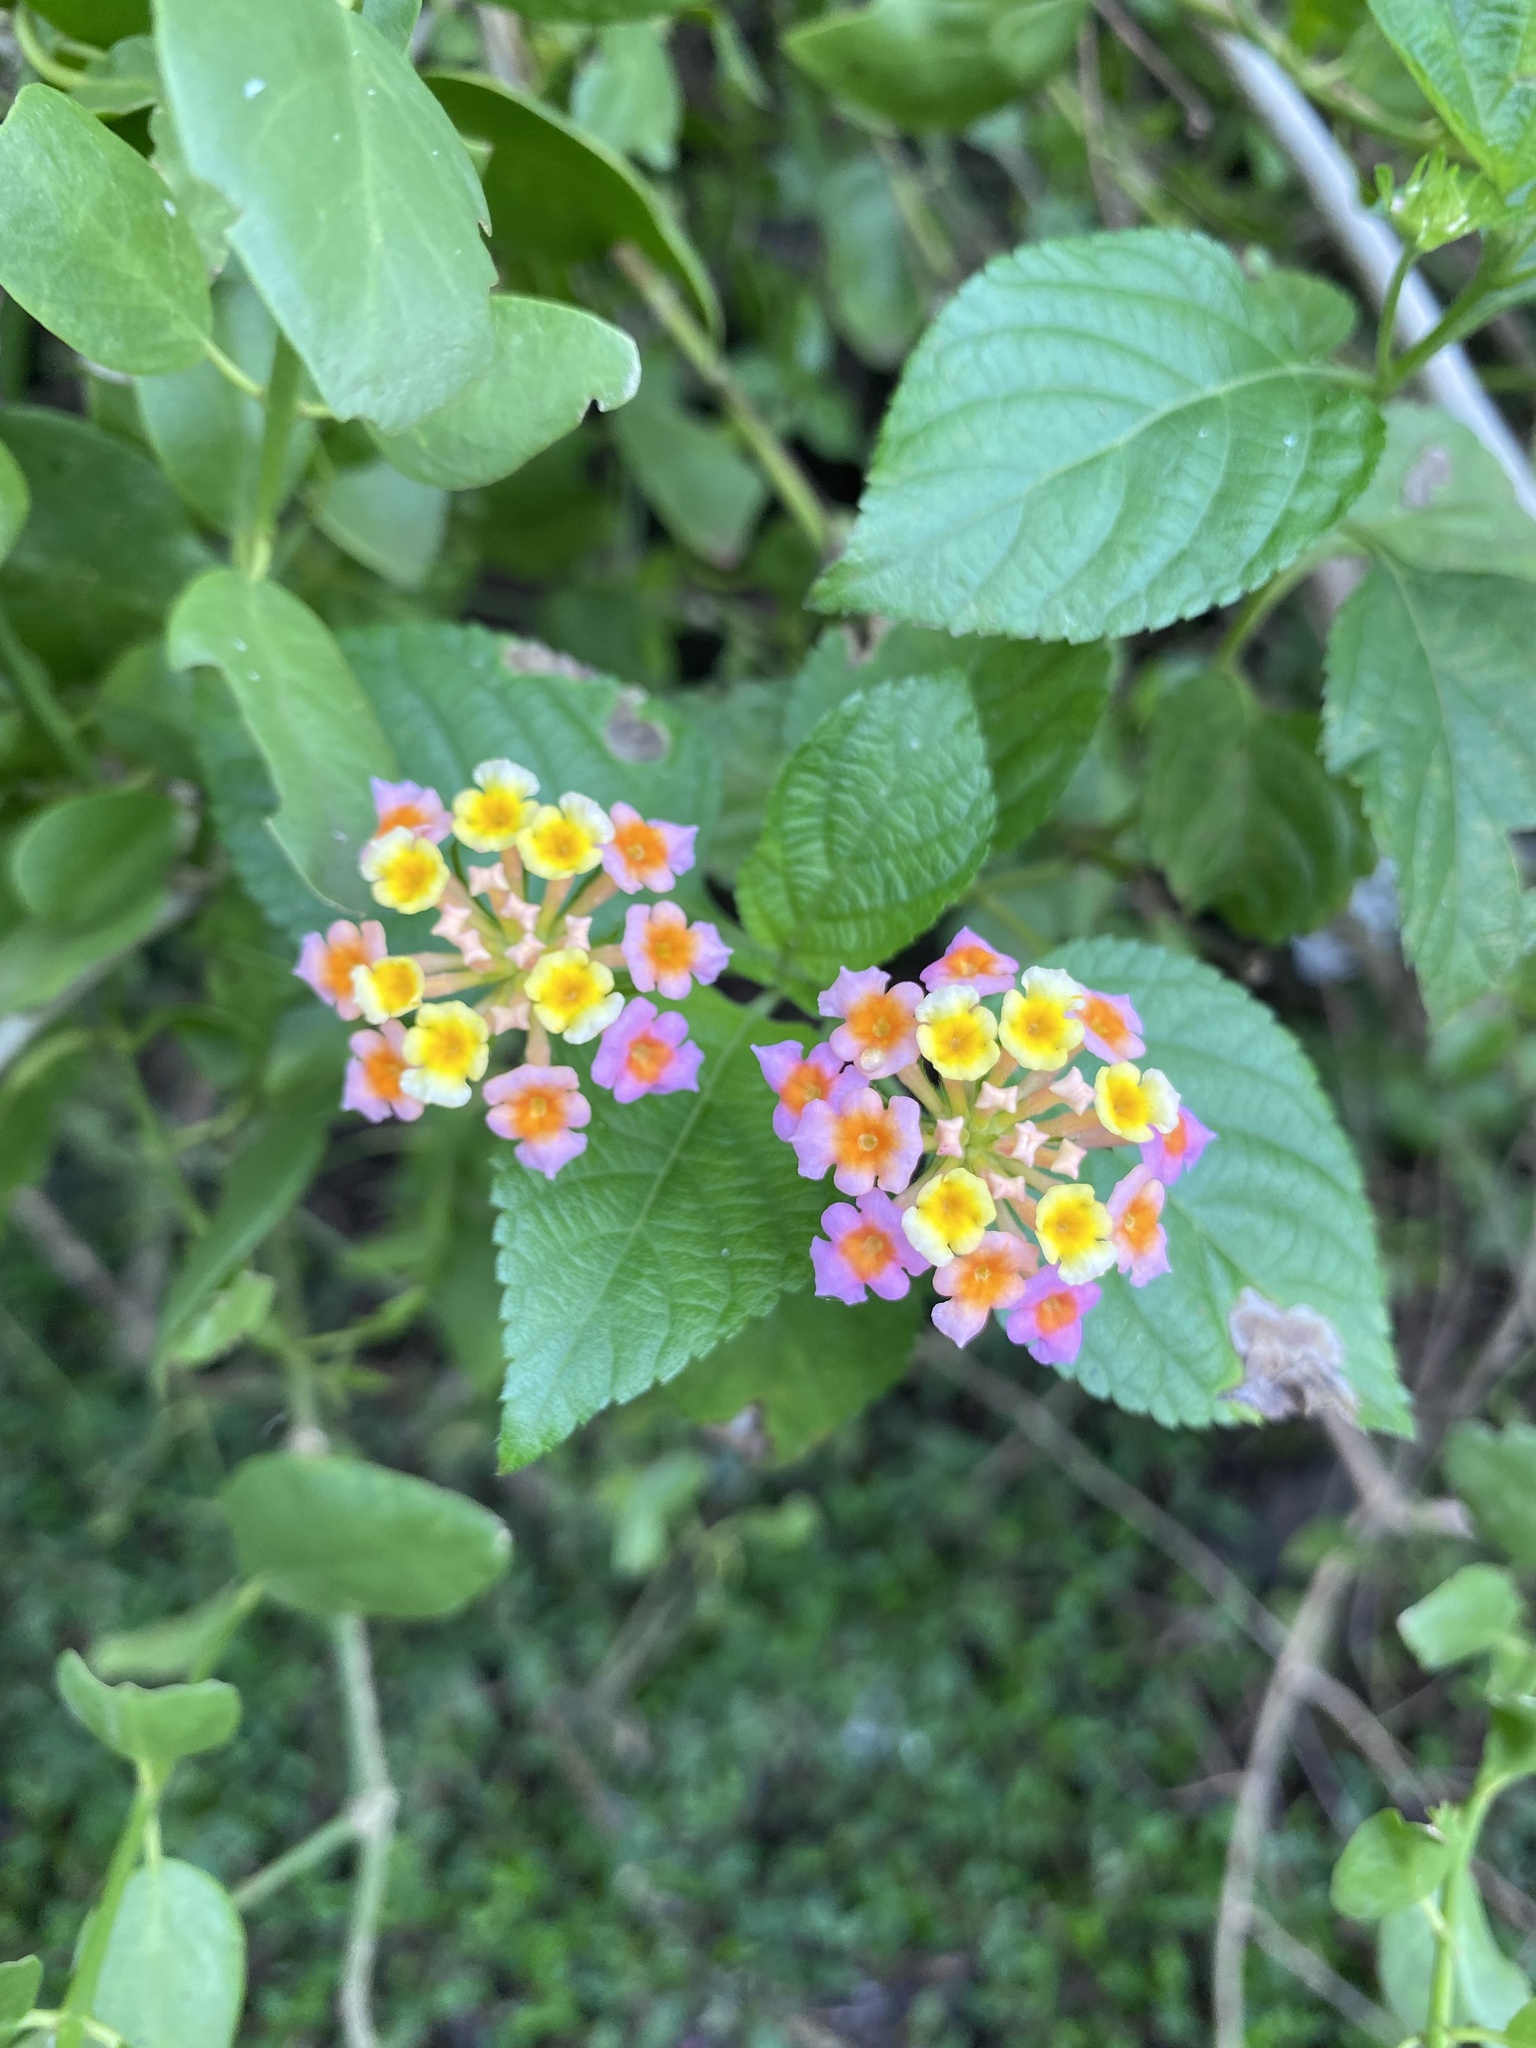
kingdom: Plantae
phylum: Tracheophyta
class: Magnoliopsida
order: Lamiales
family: Verbenaceae
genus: Lantana
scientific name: Lantana camara
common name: Lantana
